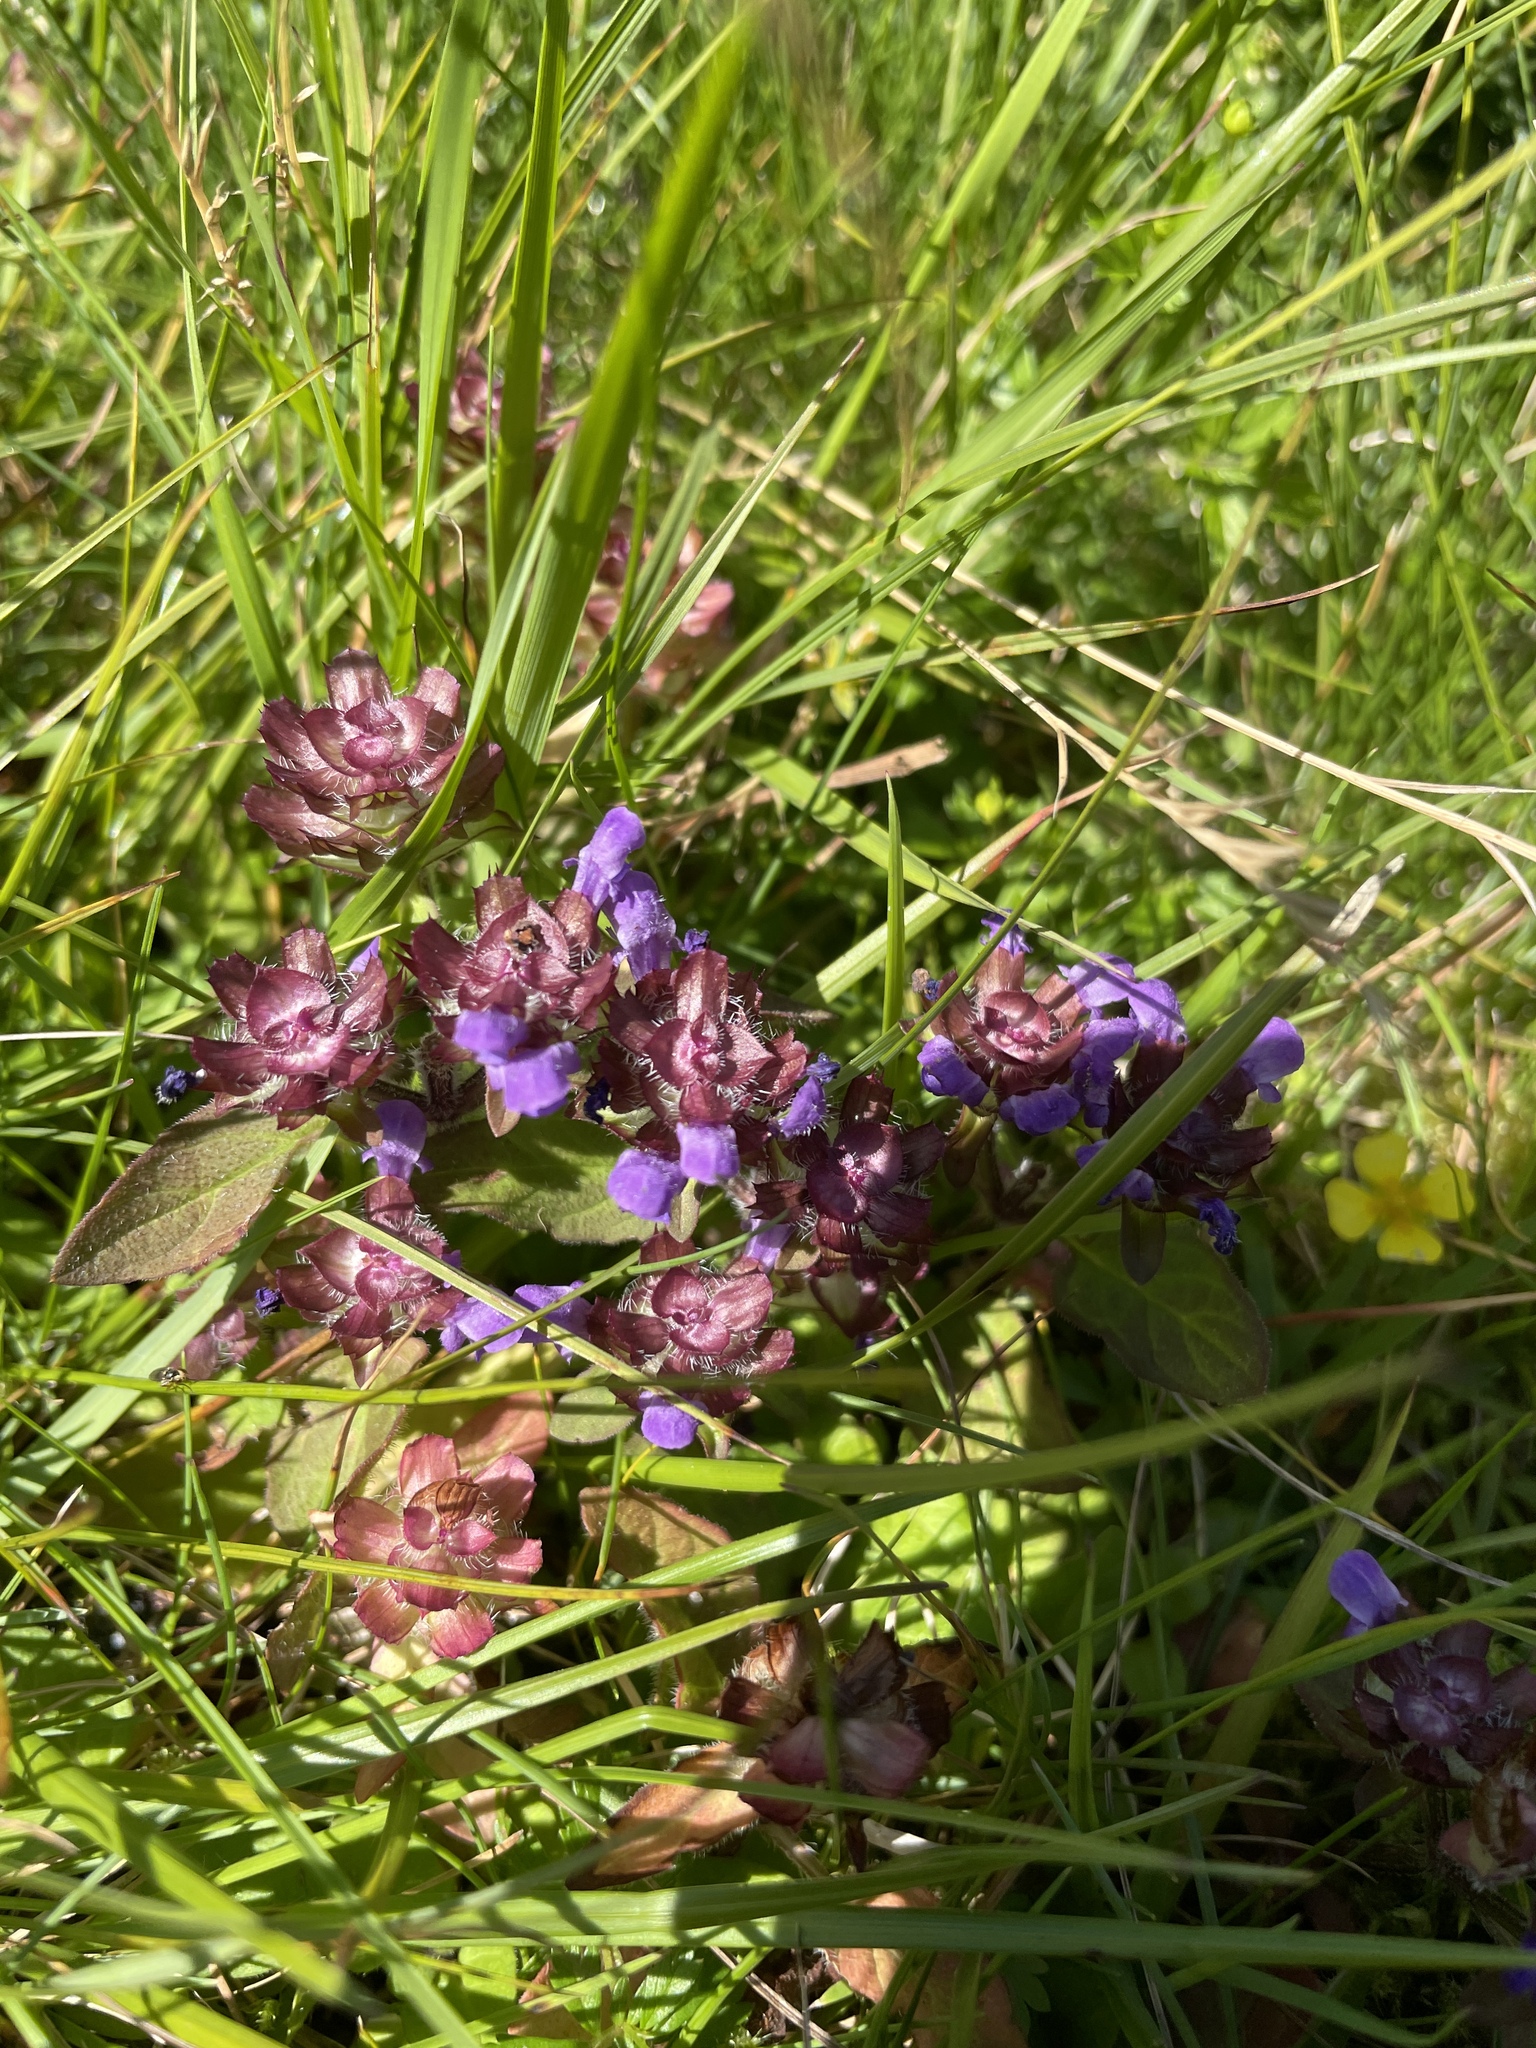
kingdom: Plantae
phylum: Tracheophyta
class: Magnoliopsida
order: Lamiales
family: Lamiaceae
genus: Prunella
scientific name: Prunella vulgaris
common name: Heal-all
